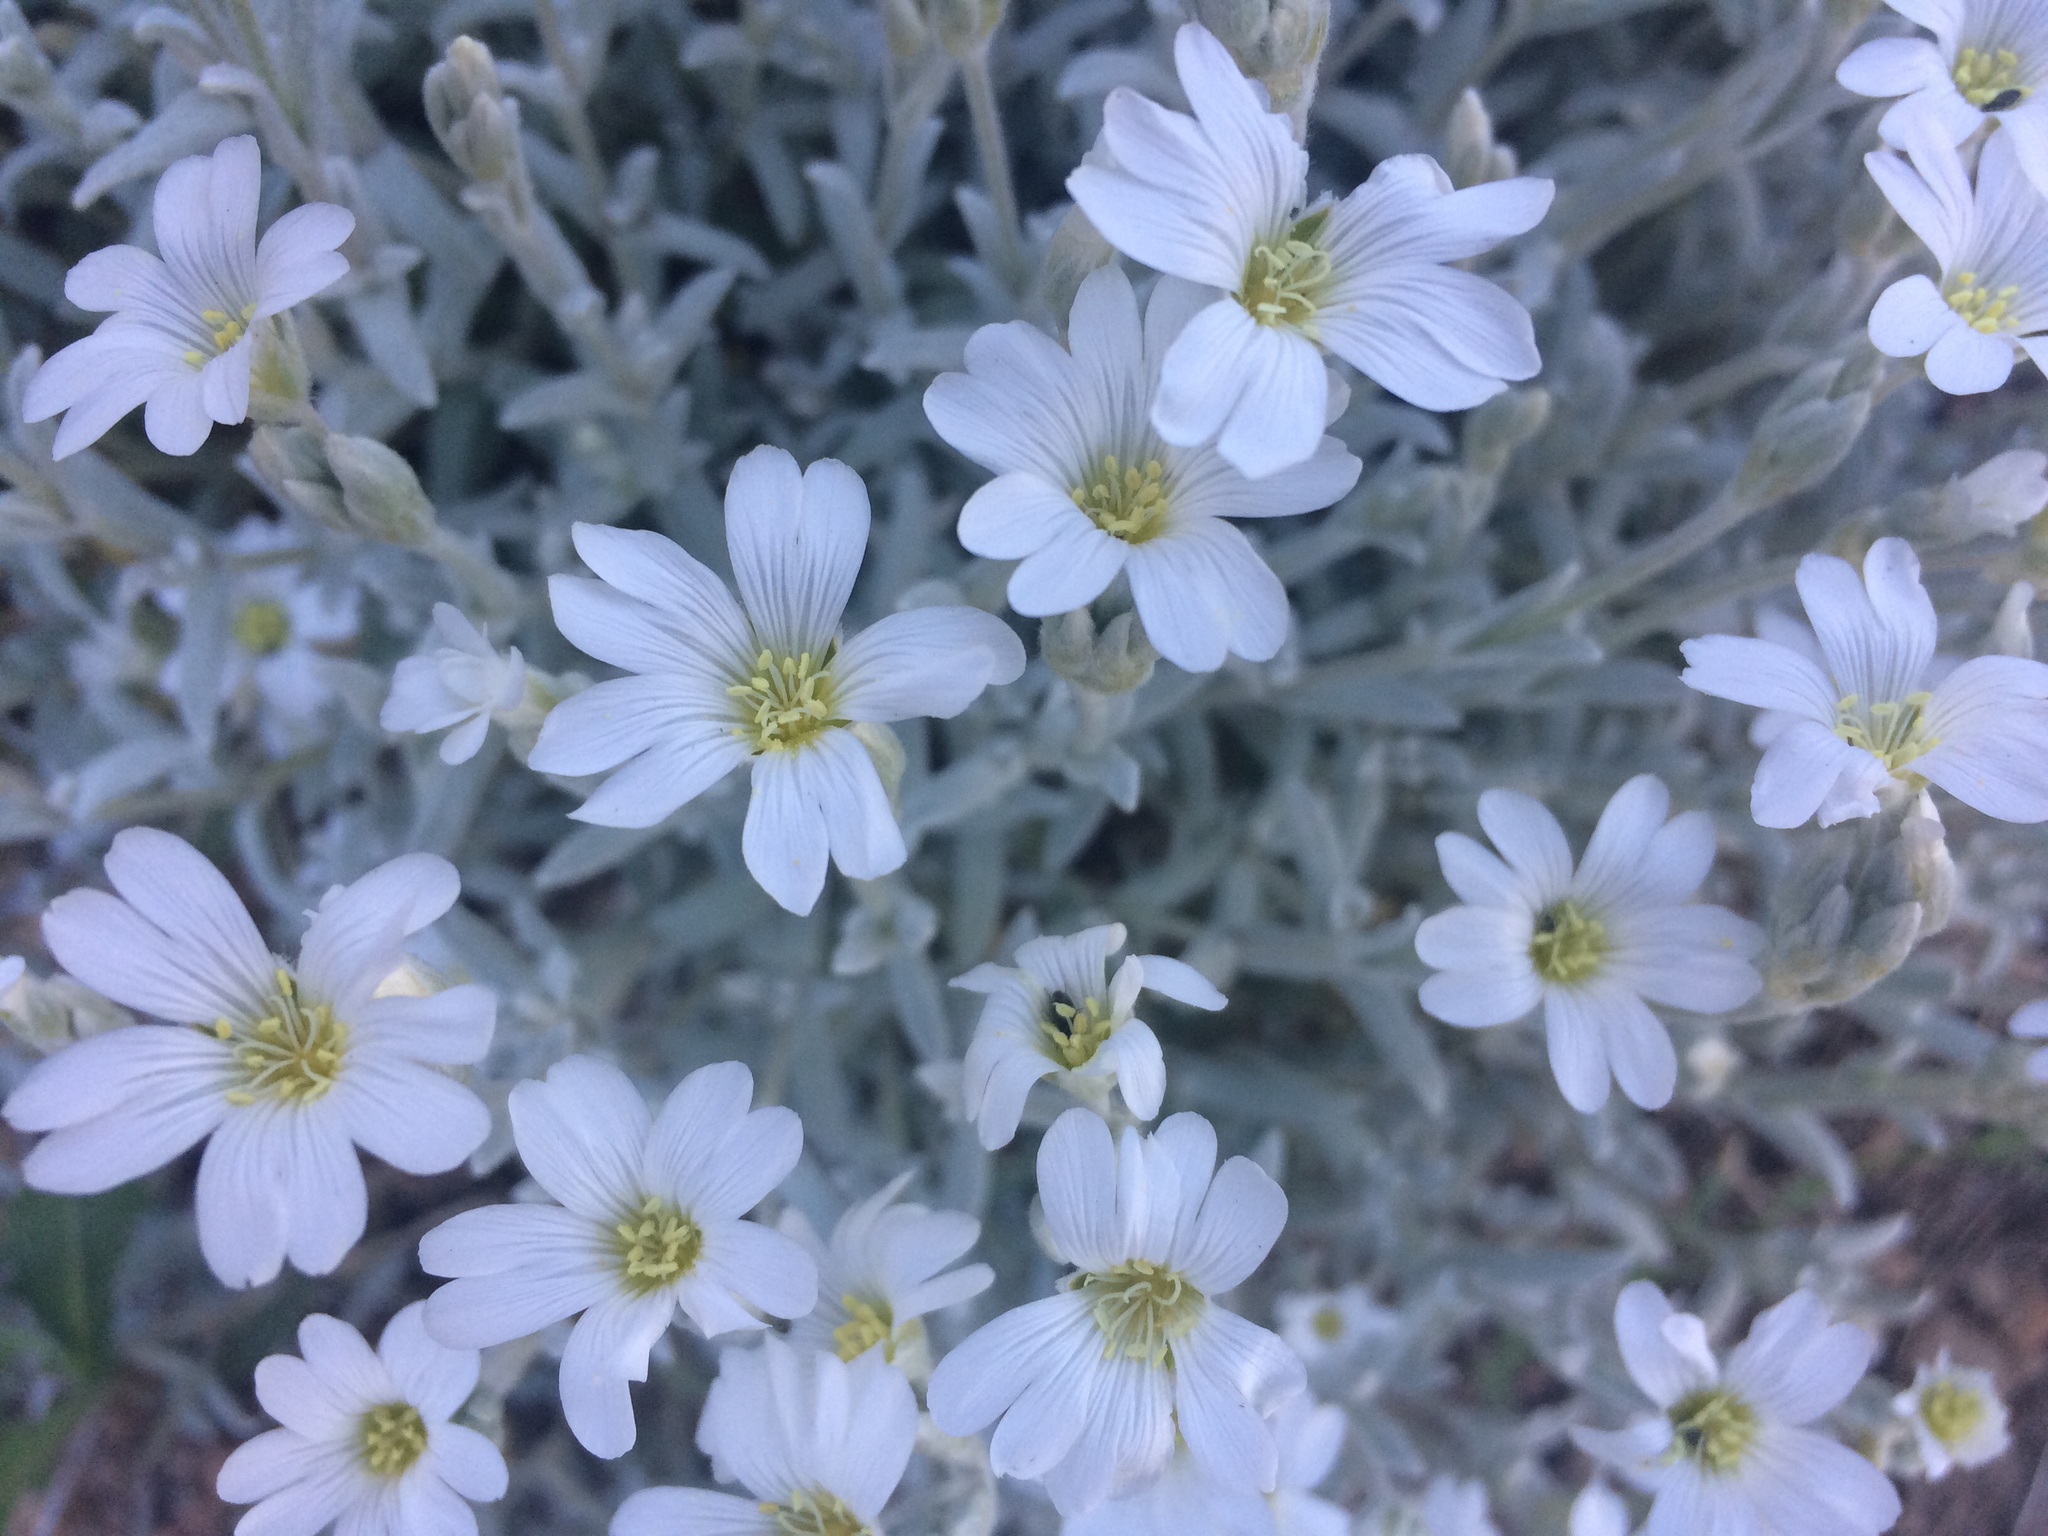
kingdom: Plantae
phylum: Tracheophyta
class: Magnoliopsida
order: Caryophyllales
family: Caryophyllaceae
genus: Cerastium
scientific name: Cerastium tomentosum
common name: Snow-in-summer
